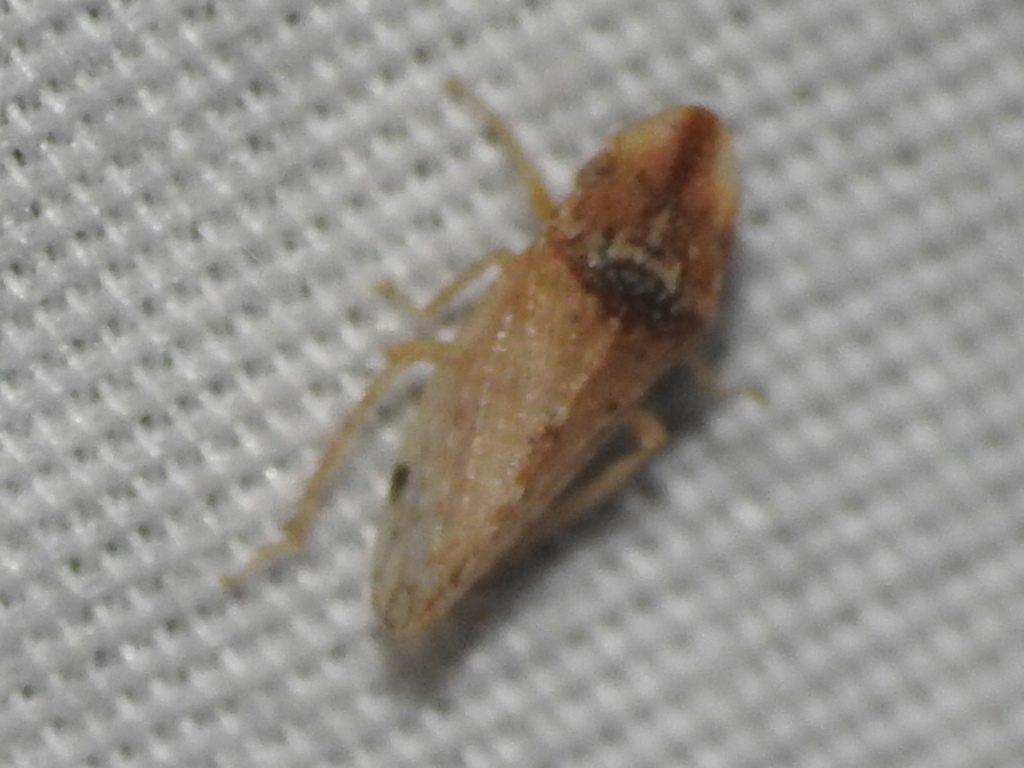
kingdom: Animalia
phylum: Arthropoda
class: Insecta
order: Hemiptera
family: Cicadellidae
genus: Xerophloea
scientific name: Xerophloea viridis
